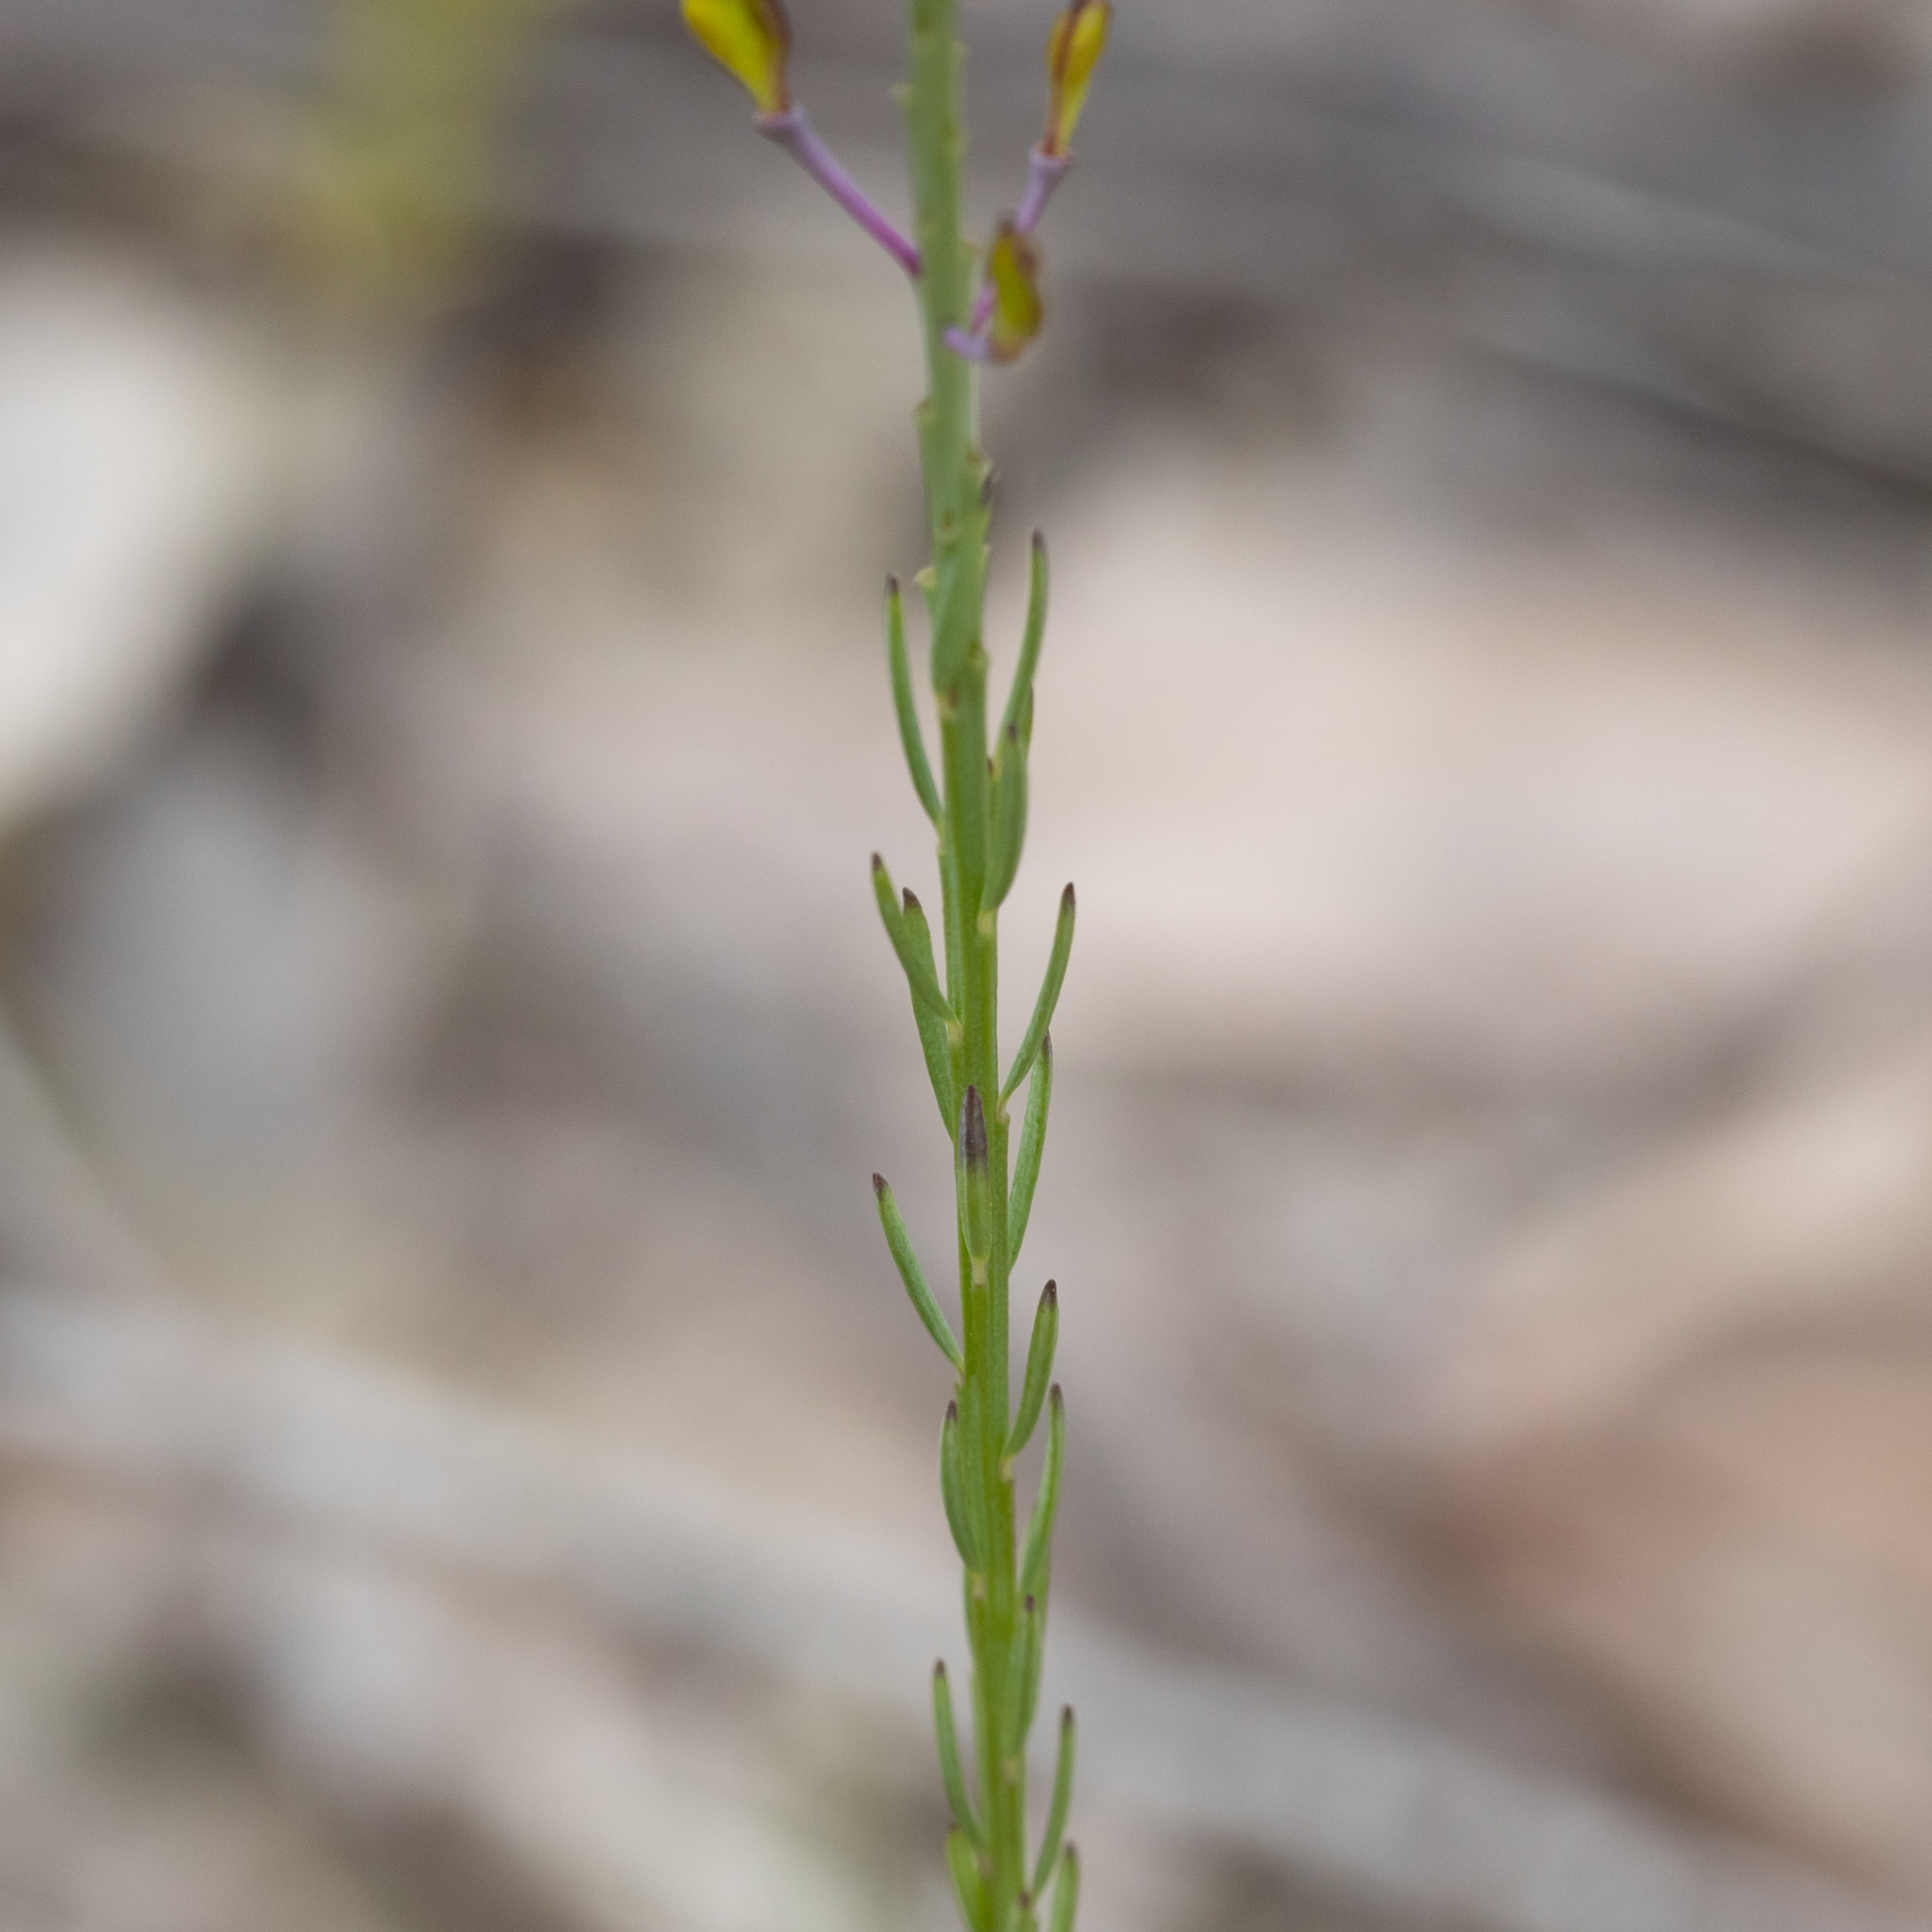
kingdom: Plantae
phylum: Tracheophyta
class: Magnoliopsida
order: Fabales
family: Polygalaceae
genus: Comesperma
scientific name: Comesperma virgatum
